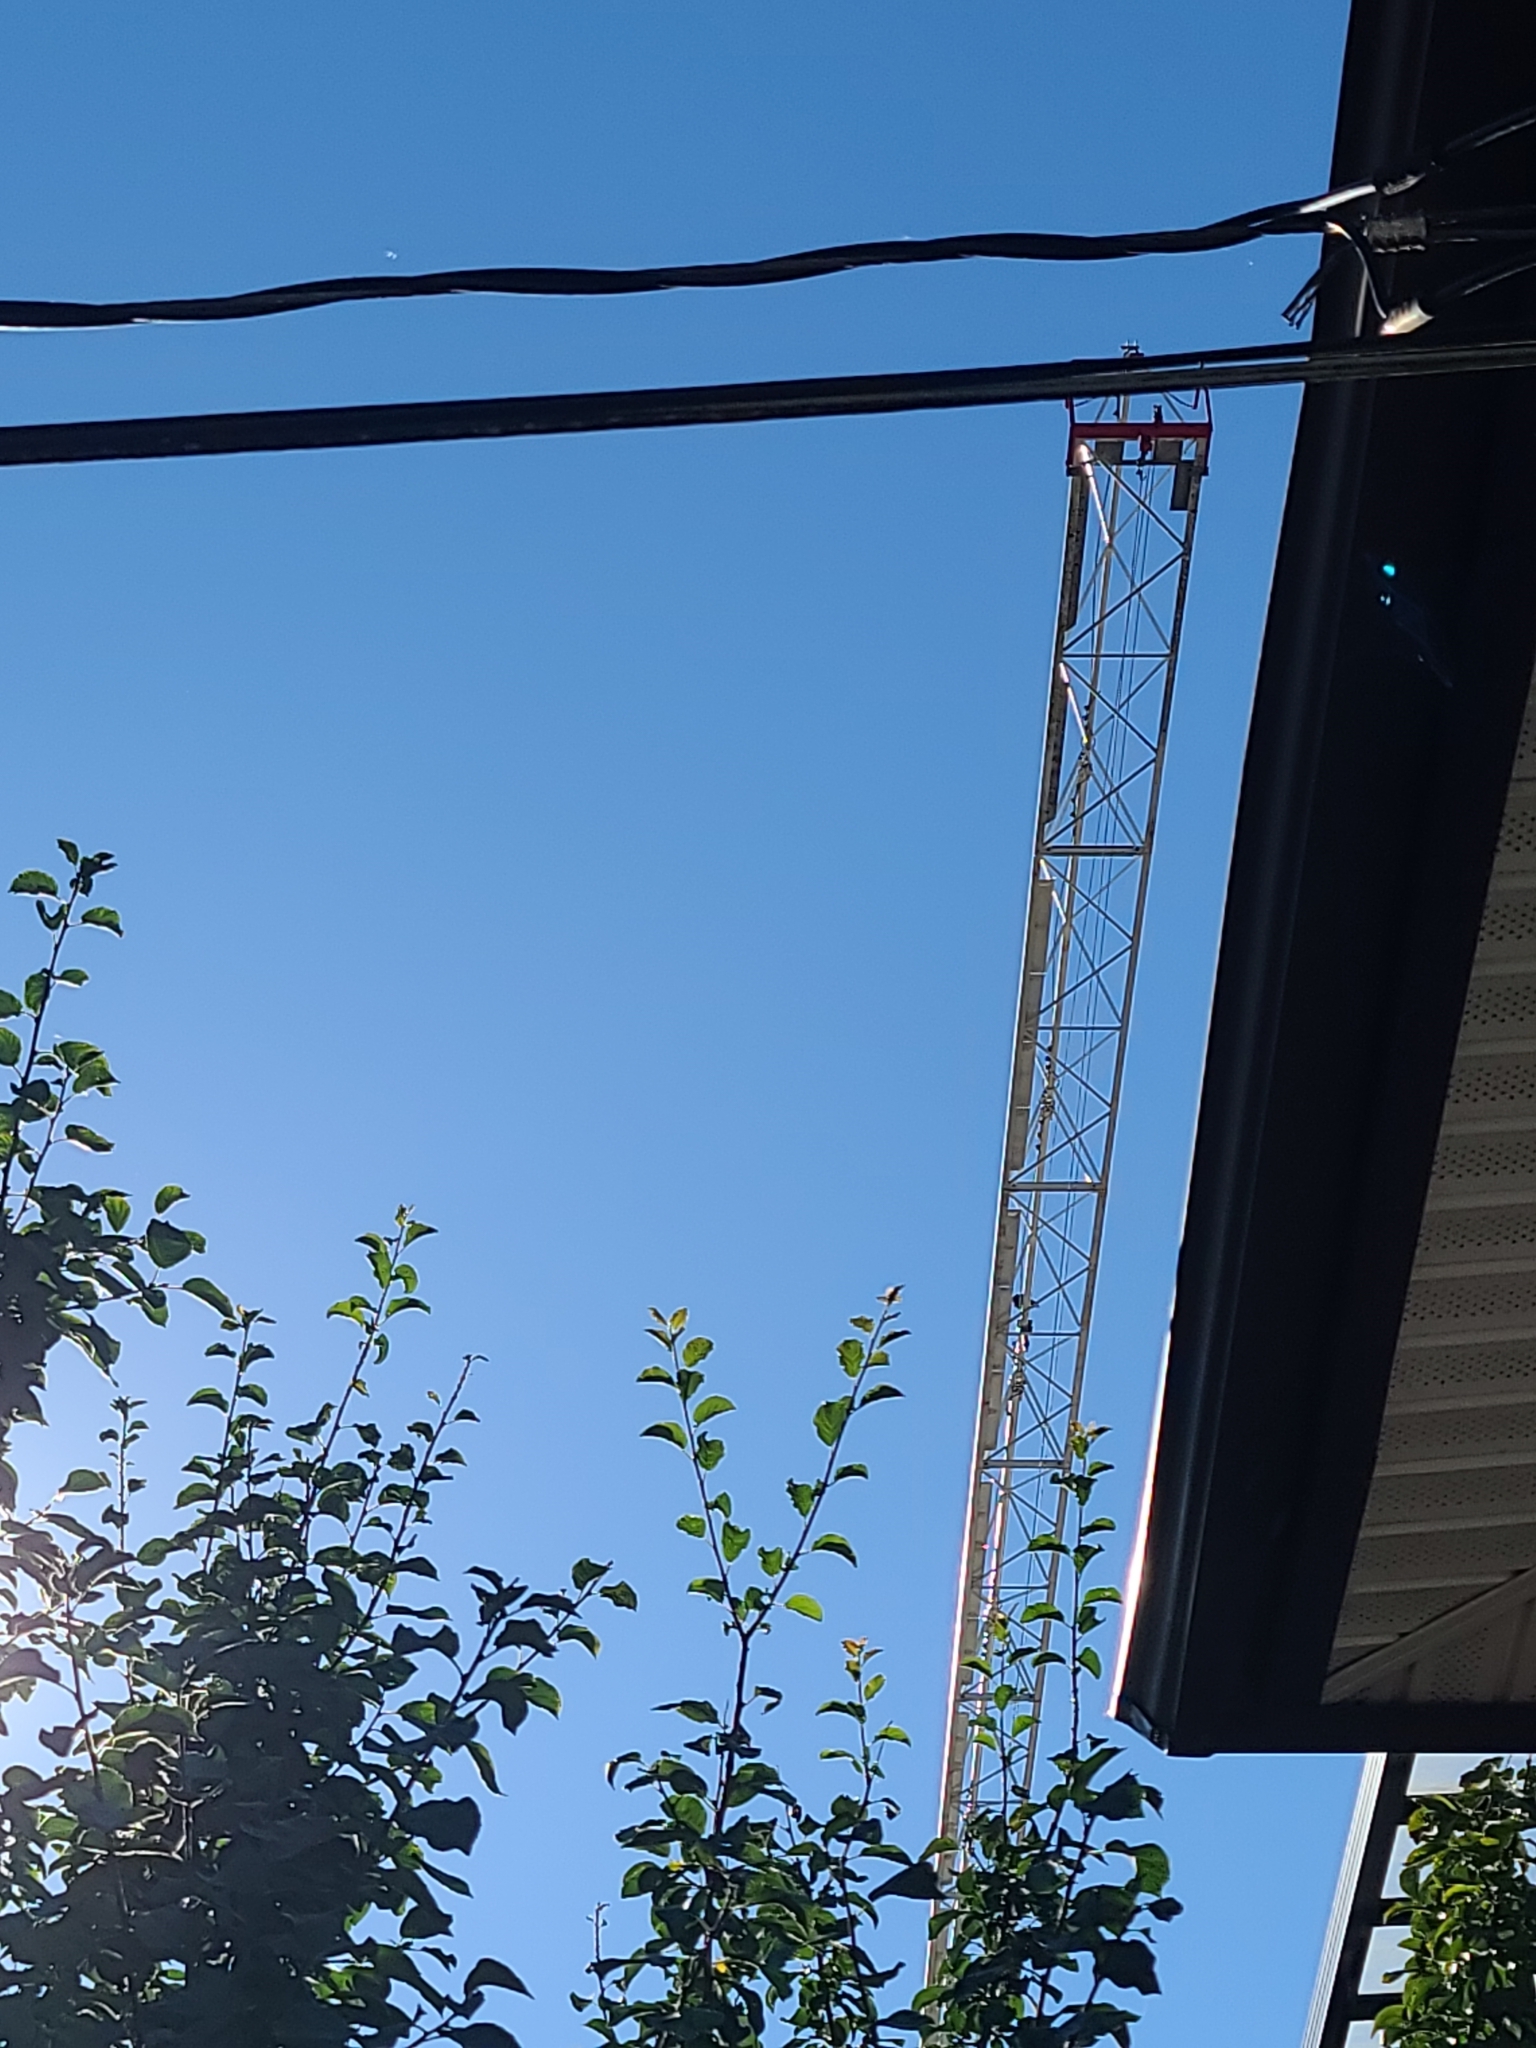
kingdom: Animalia
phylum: Chordata
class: Aves
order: Passeriformes
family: Corvidae
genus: Corvus
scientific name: Corvus corax
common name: Common raven
